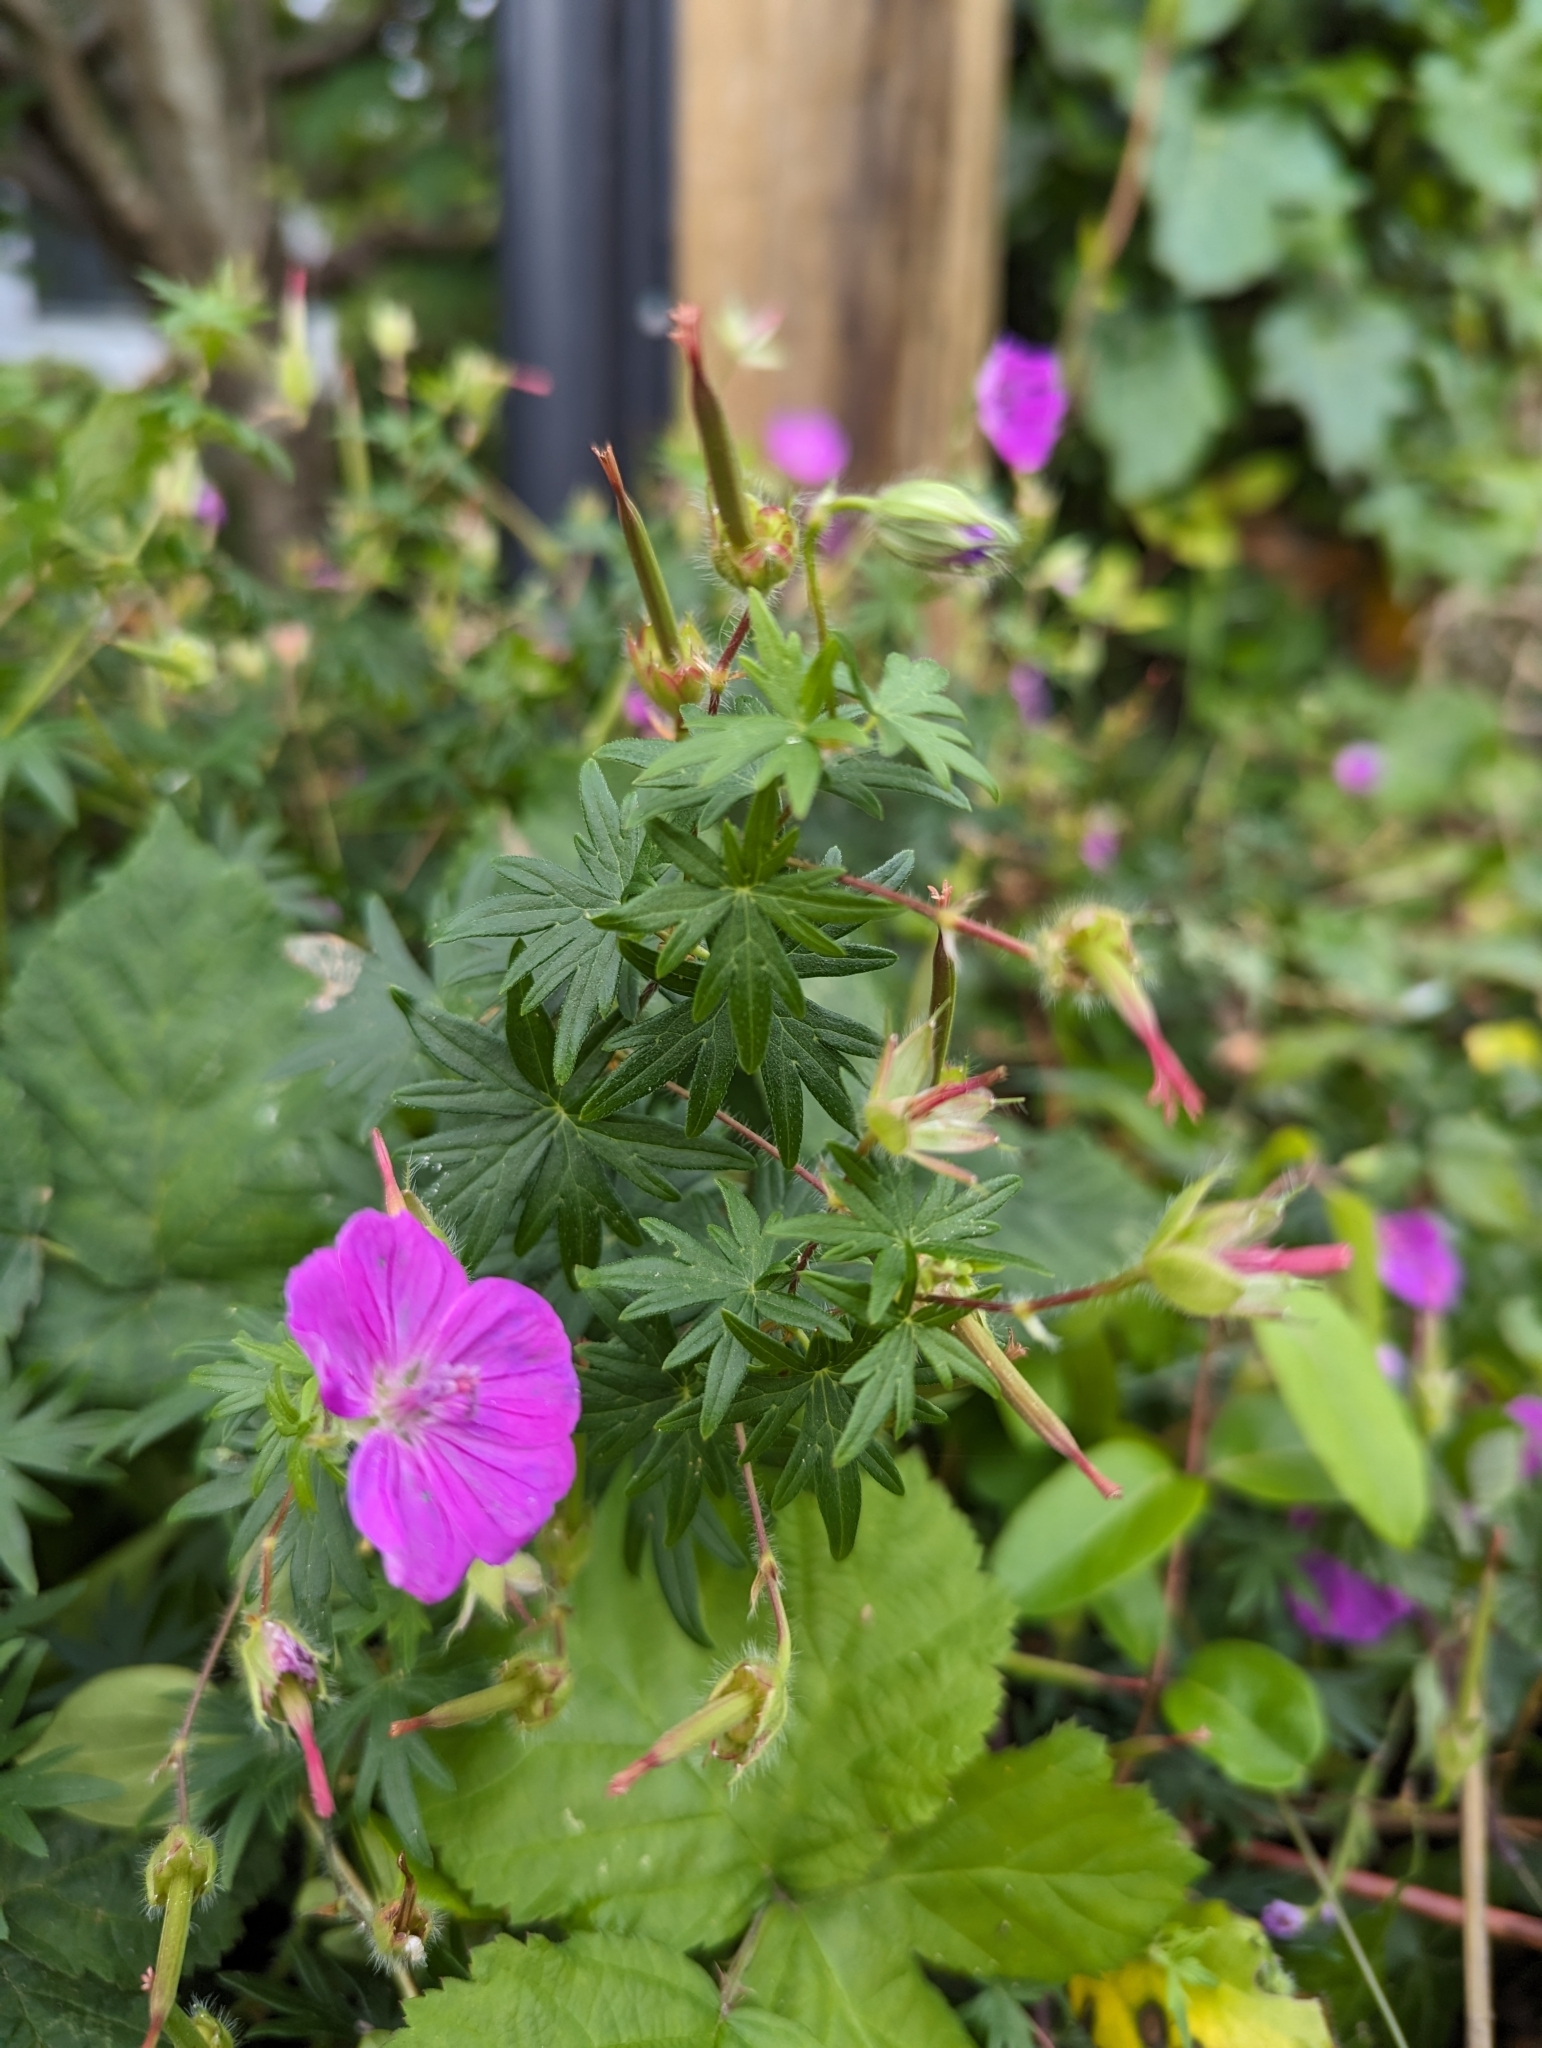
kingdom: Plantae
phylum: Tracheophyta
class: Magnoliopsida
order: Geraniales
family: Geraniaceae
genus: Geranium
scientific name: Geranium sanguineum
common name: Bloody crane's-bill
